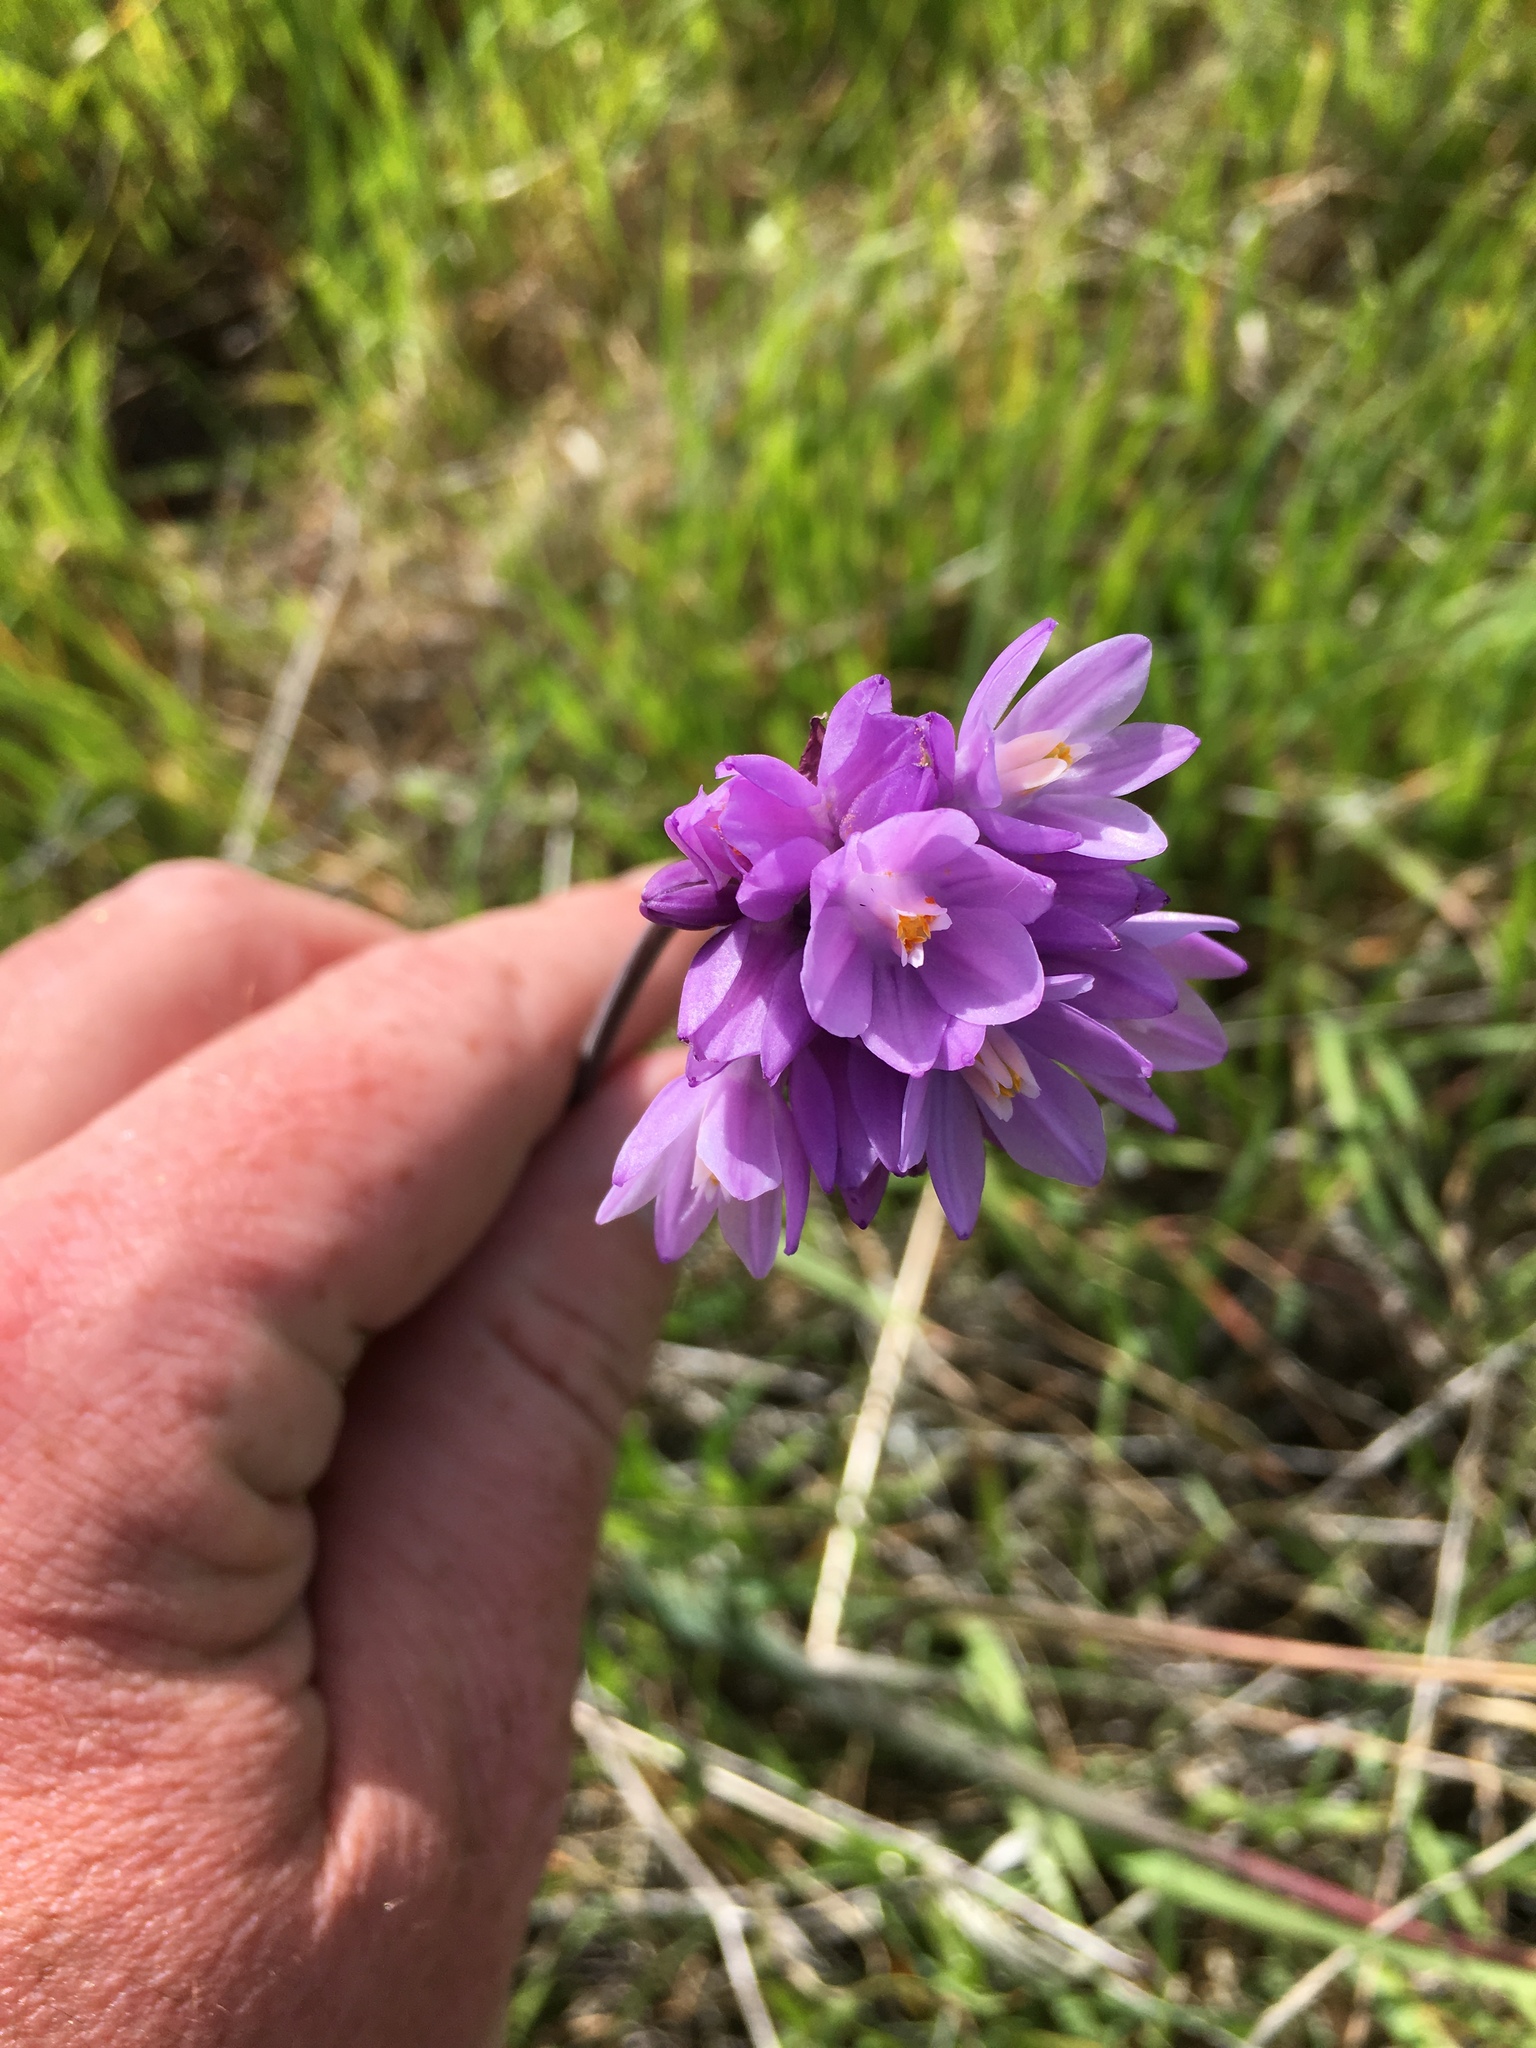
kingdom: Plantae
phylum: Tracheophyta
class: Liliopsida
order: Asparagales
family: Asparagaceae
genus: Dipterostemon
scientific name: Dipterostemon capitatus
